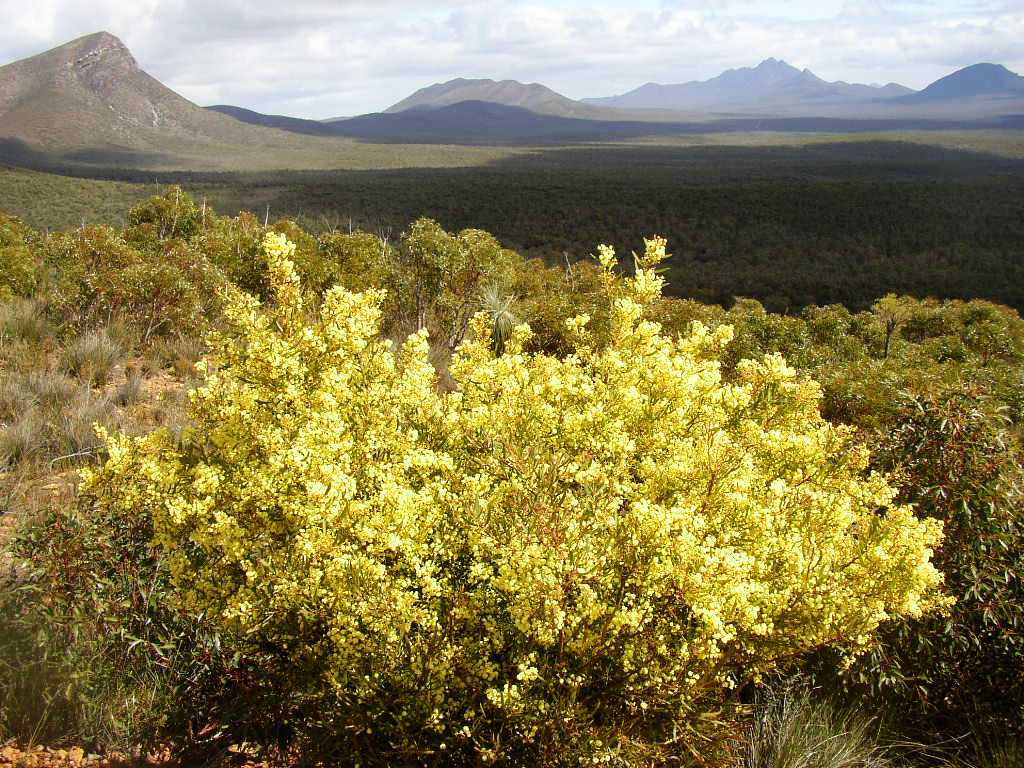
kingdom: Plantae
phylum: Tracheophyta
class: Magnoliopsida
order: Fabales
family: Fabaceae
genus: Acacia
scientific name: Acacia myrtifolia
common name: Myrtle wattle
